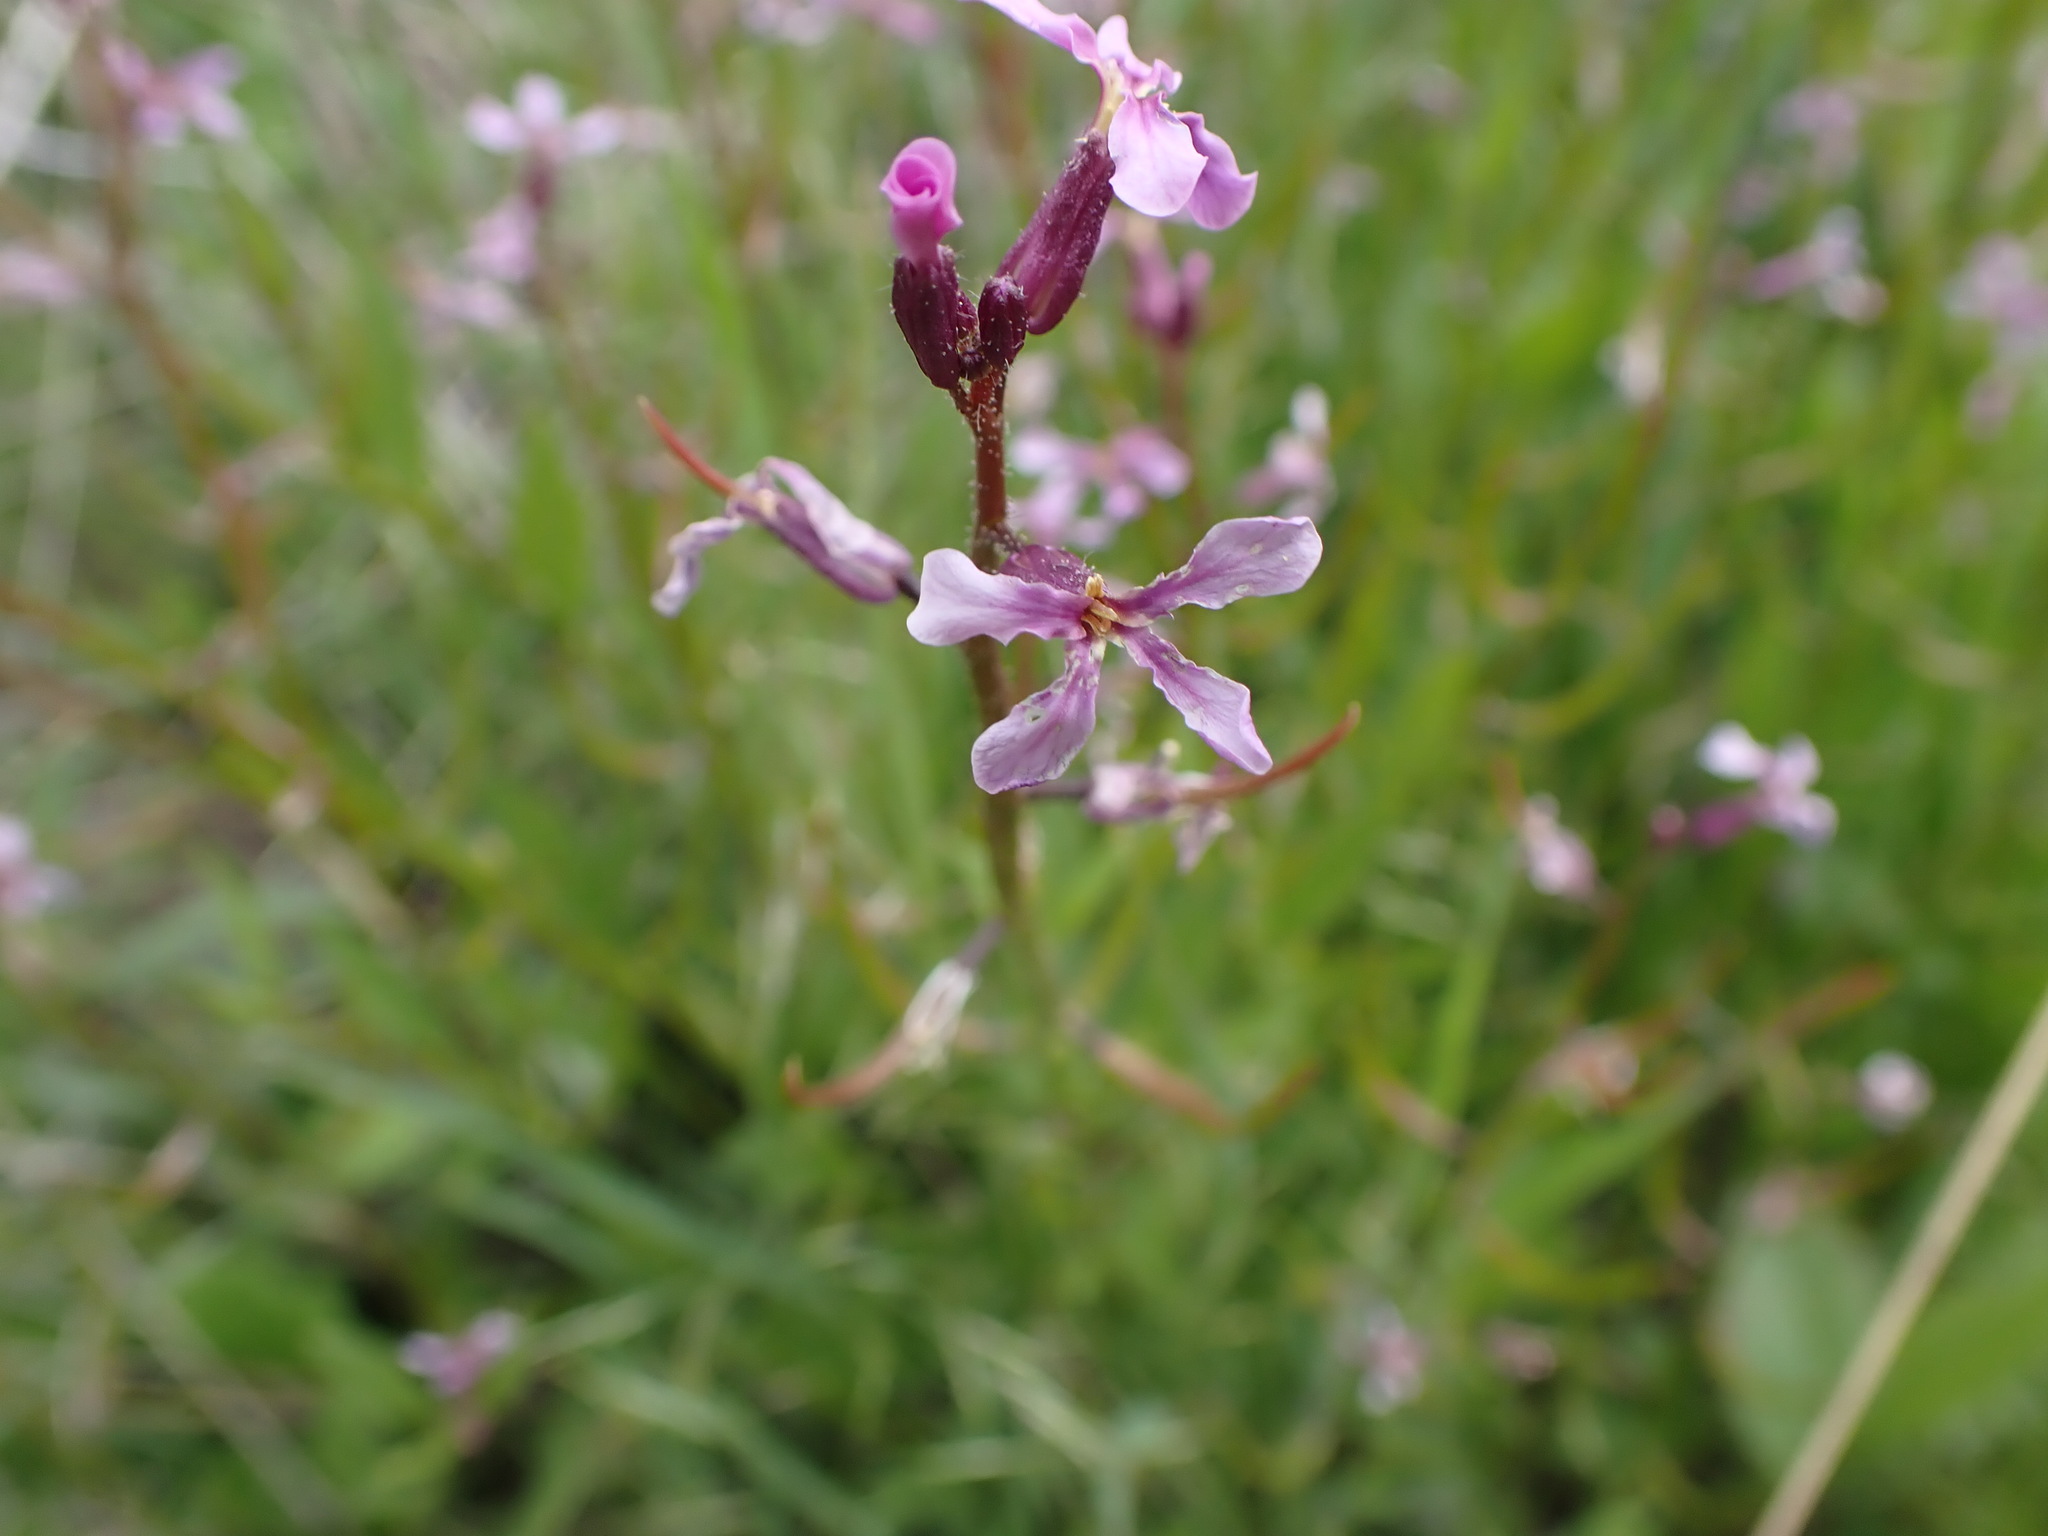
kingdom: Plantae
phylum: Tracheophyta
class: Magnoliopsida
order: Brassicales
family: Brassicaceae
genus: Chorispora
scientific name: Chorispora tenella
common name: Crossflower
